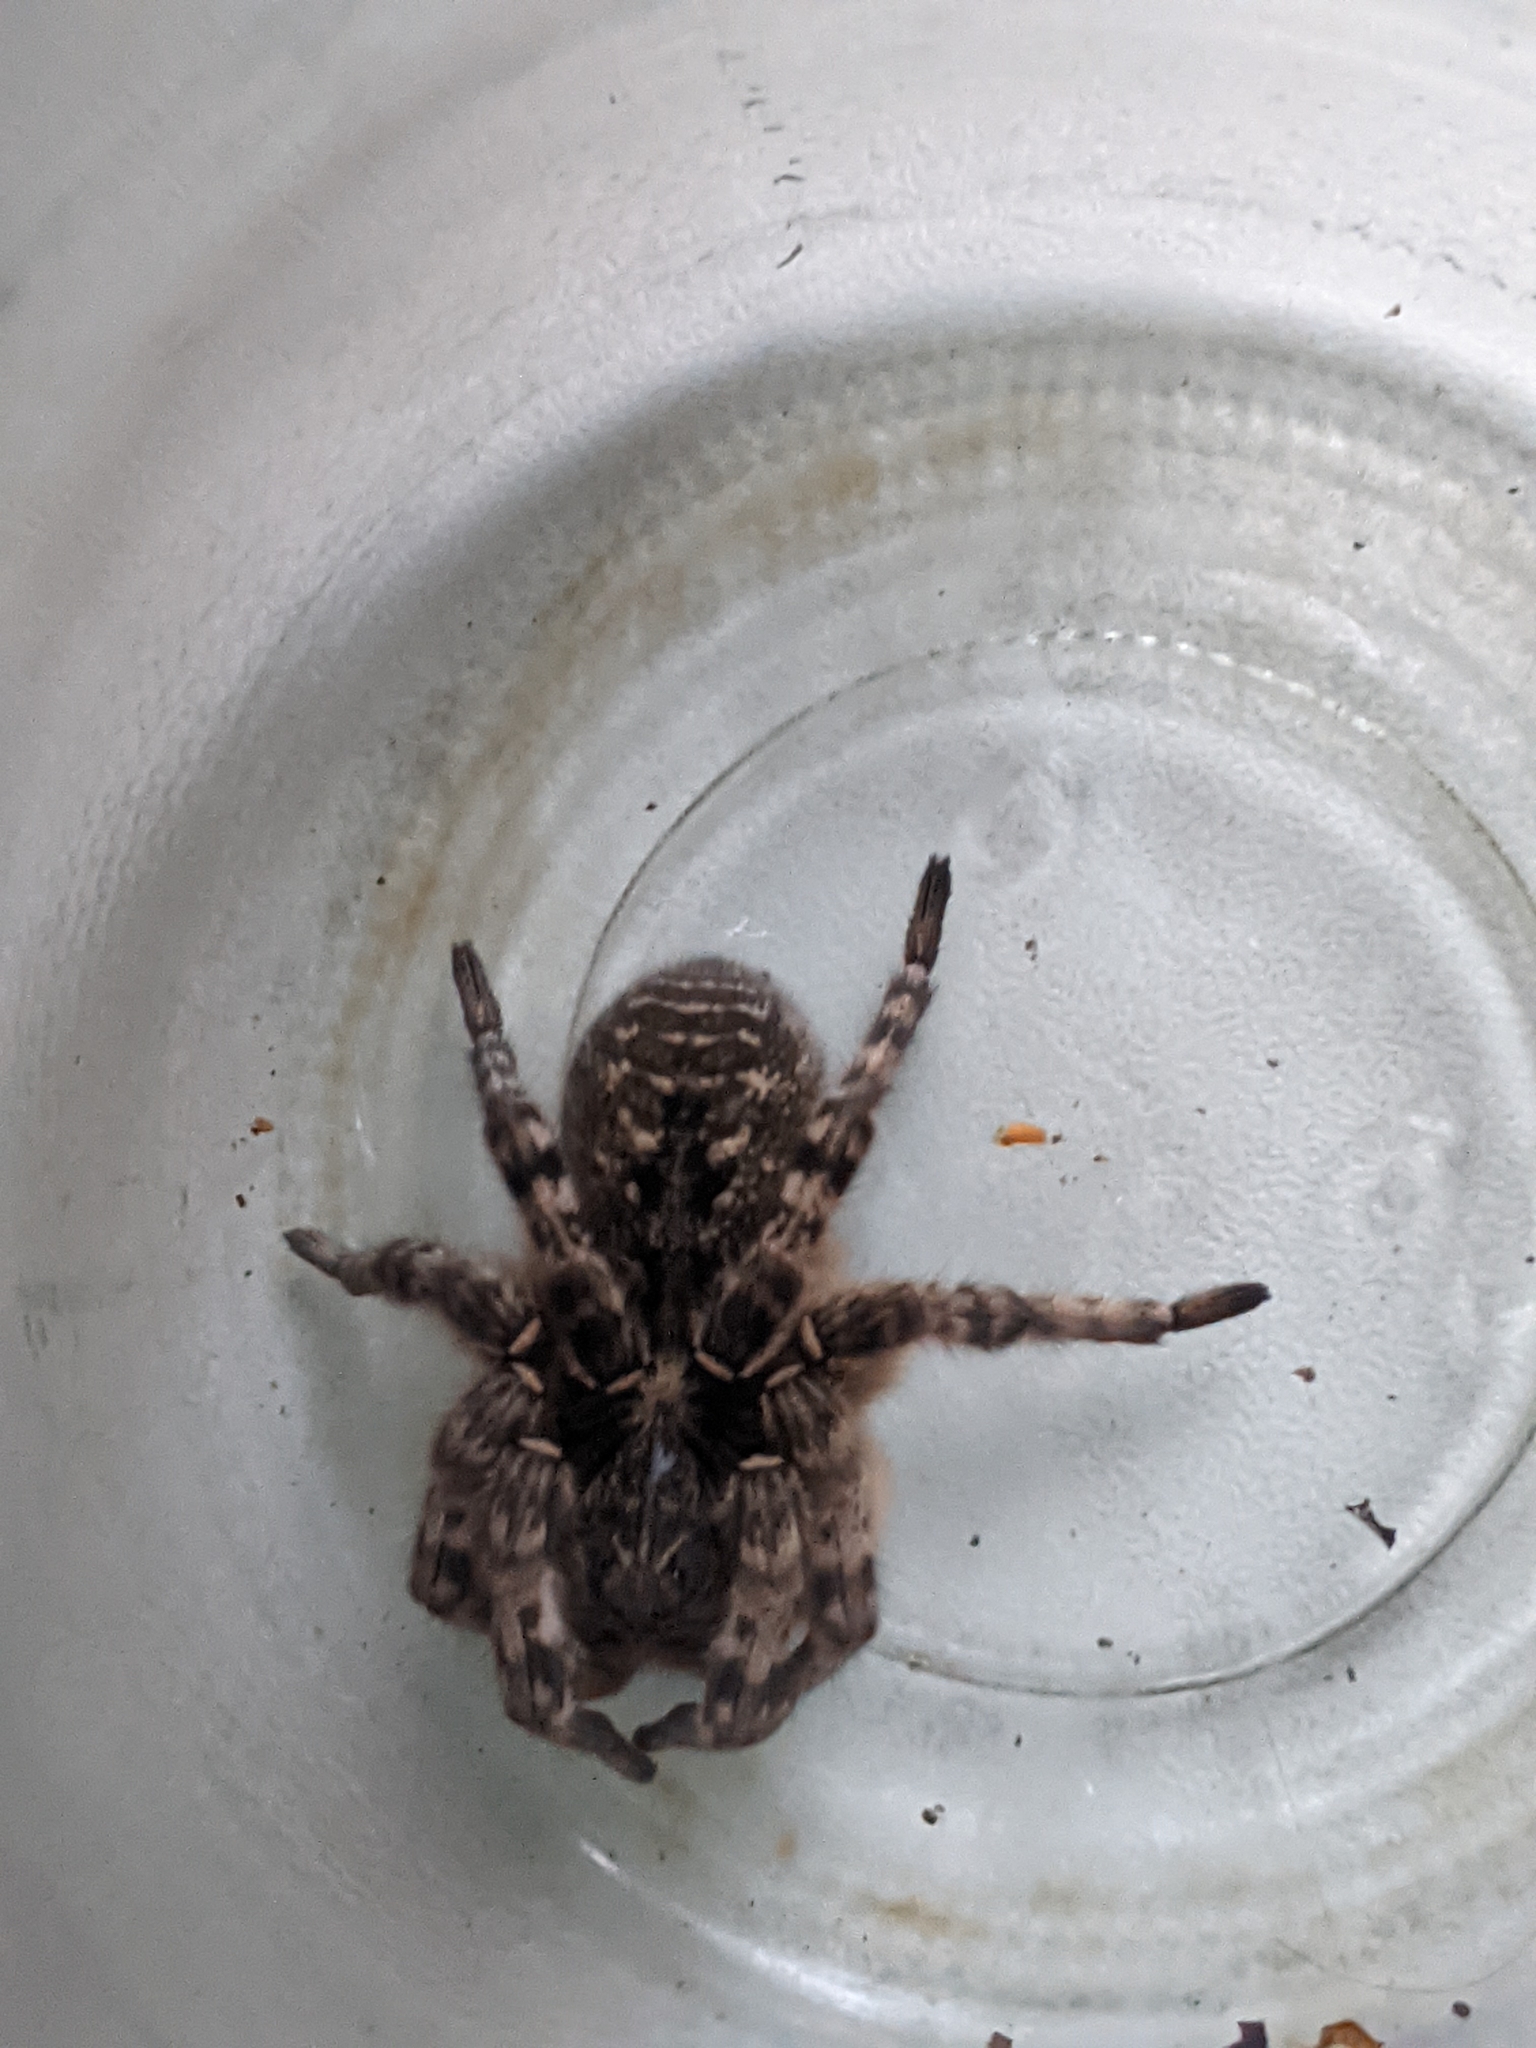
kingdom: Animalia
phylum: Arthropoda
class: Arachnida
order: Araneae
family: Lycosidae
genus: Lycosa
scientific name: Lycosa singoriensis
